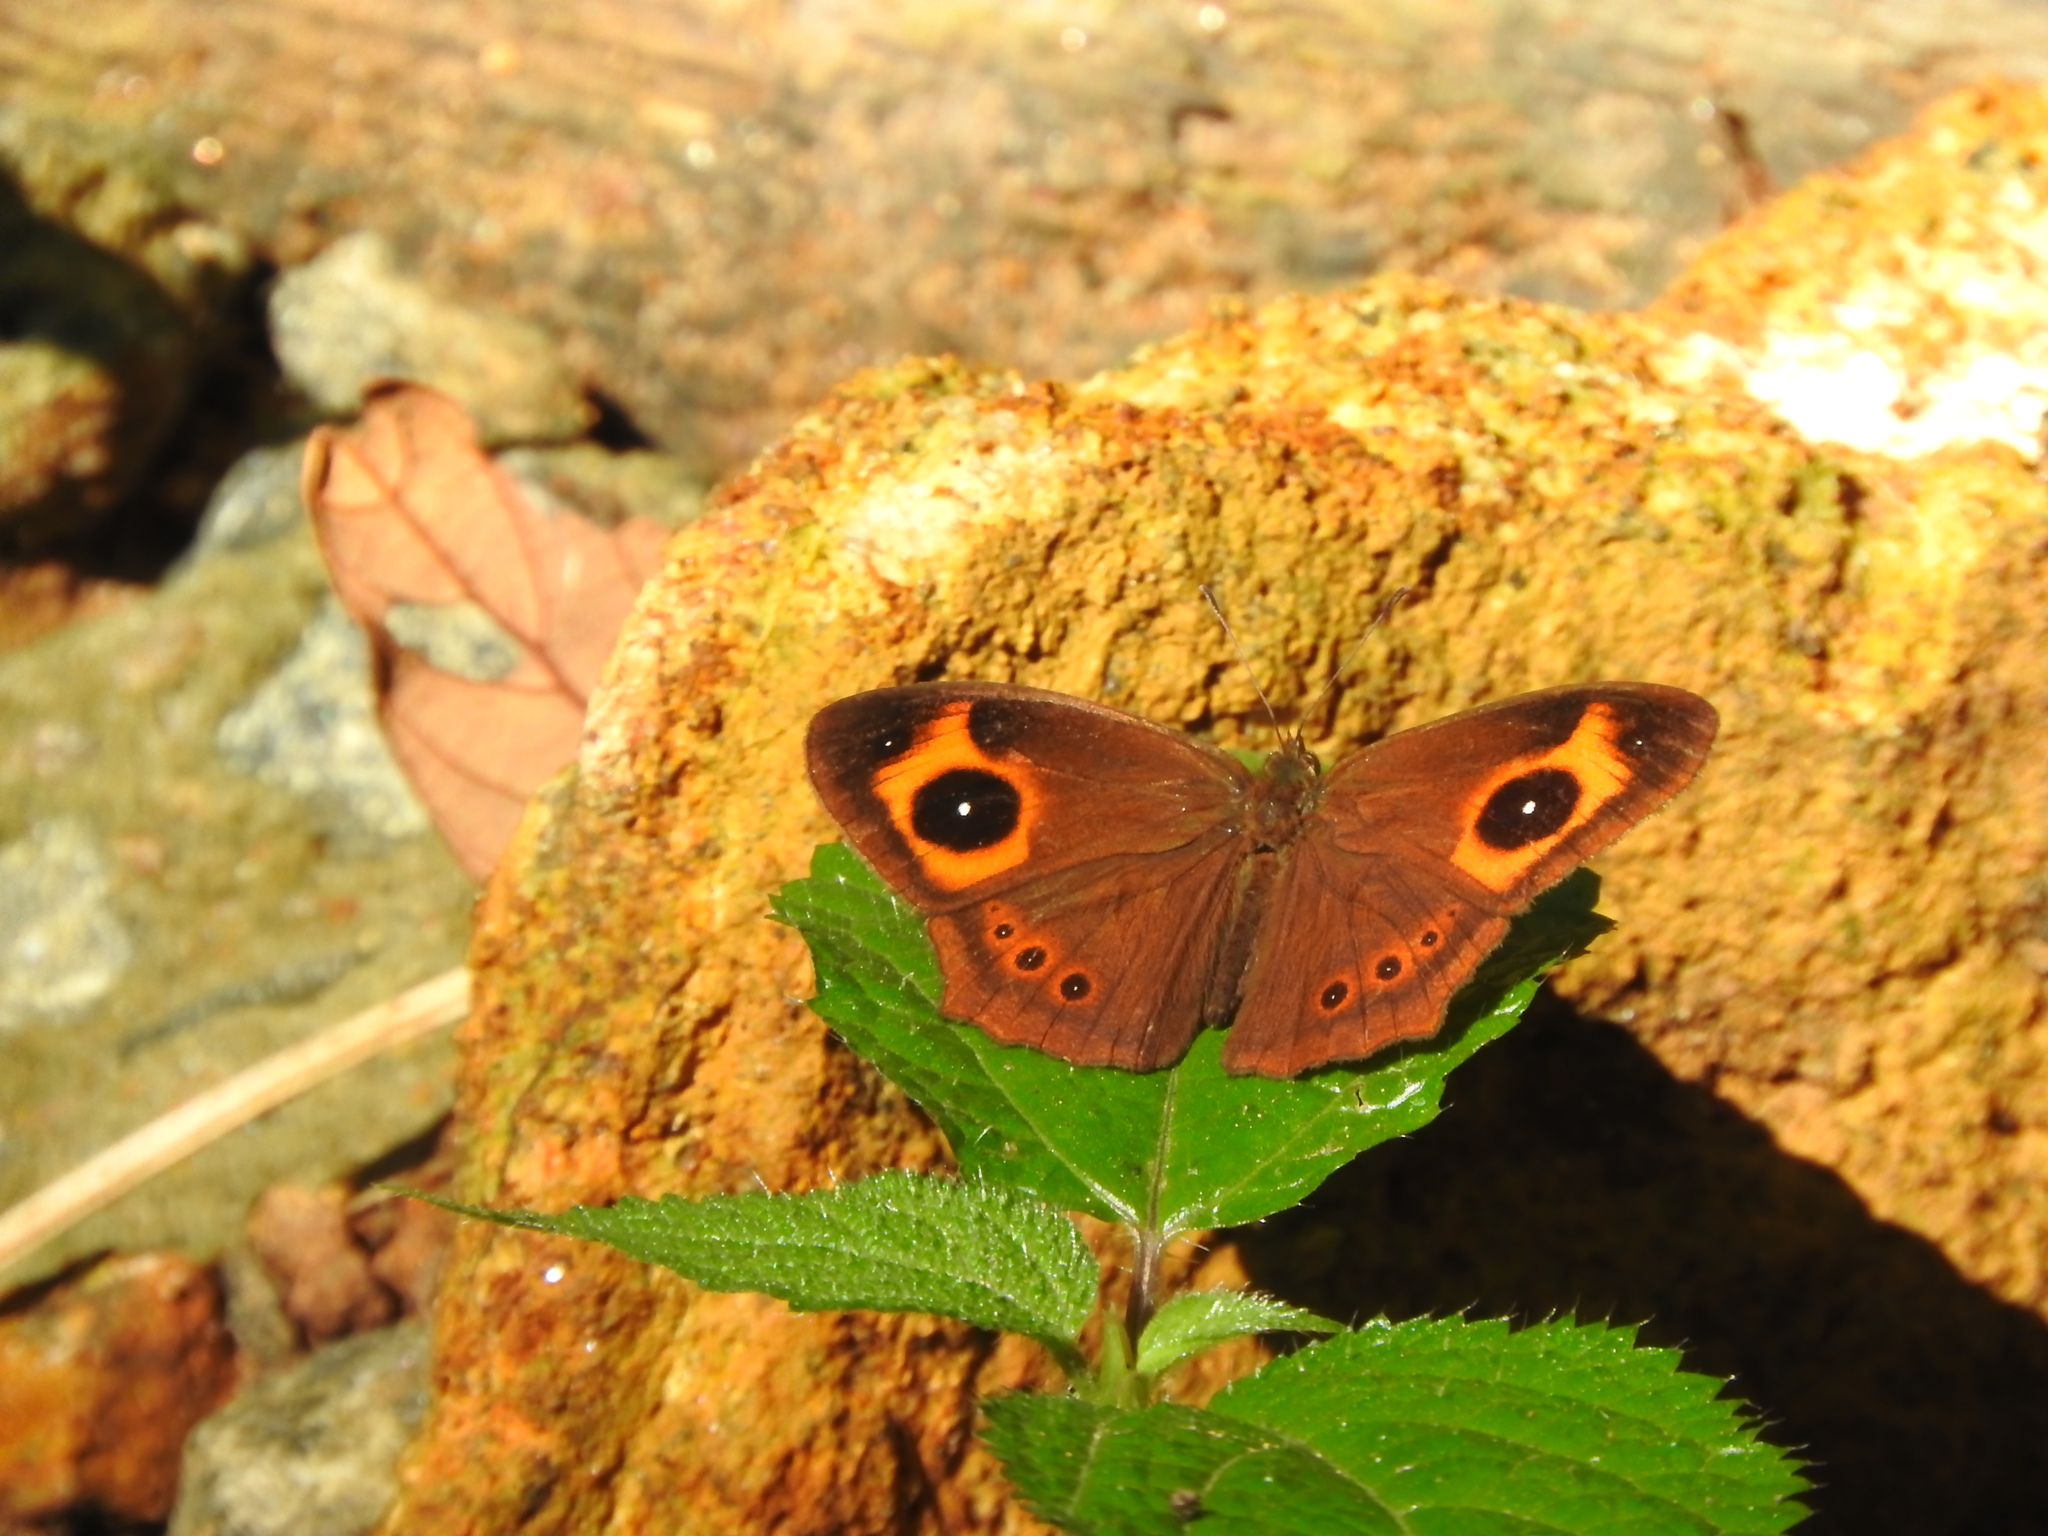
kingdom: Animalia
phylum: Arthropoda
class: Insecta
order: Lepidoptera
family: Nymphalidae
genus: Mycalesis
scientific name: Mycalesis Telinga oculus
